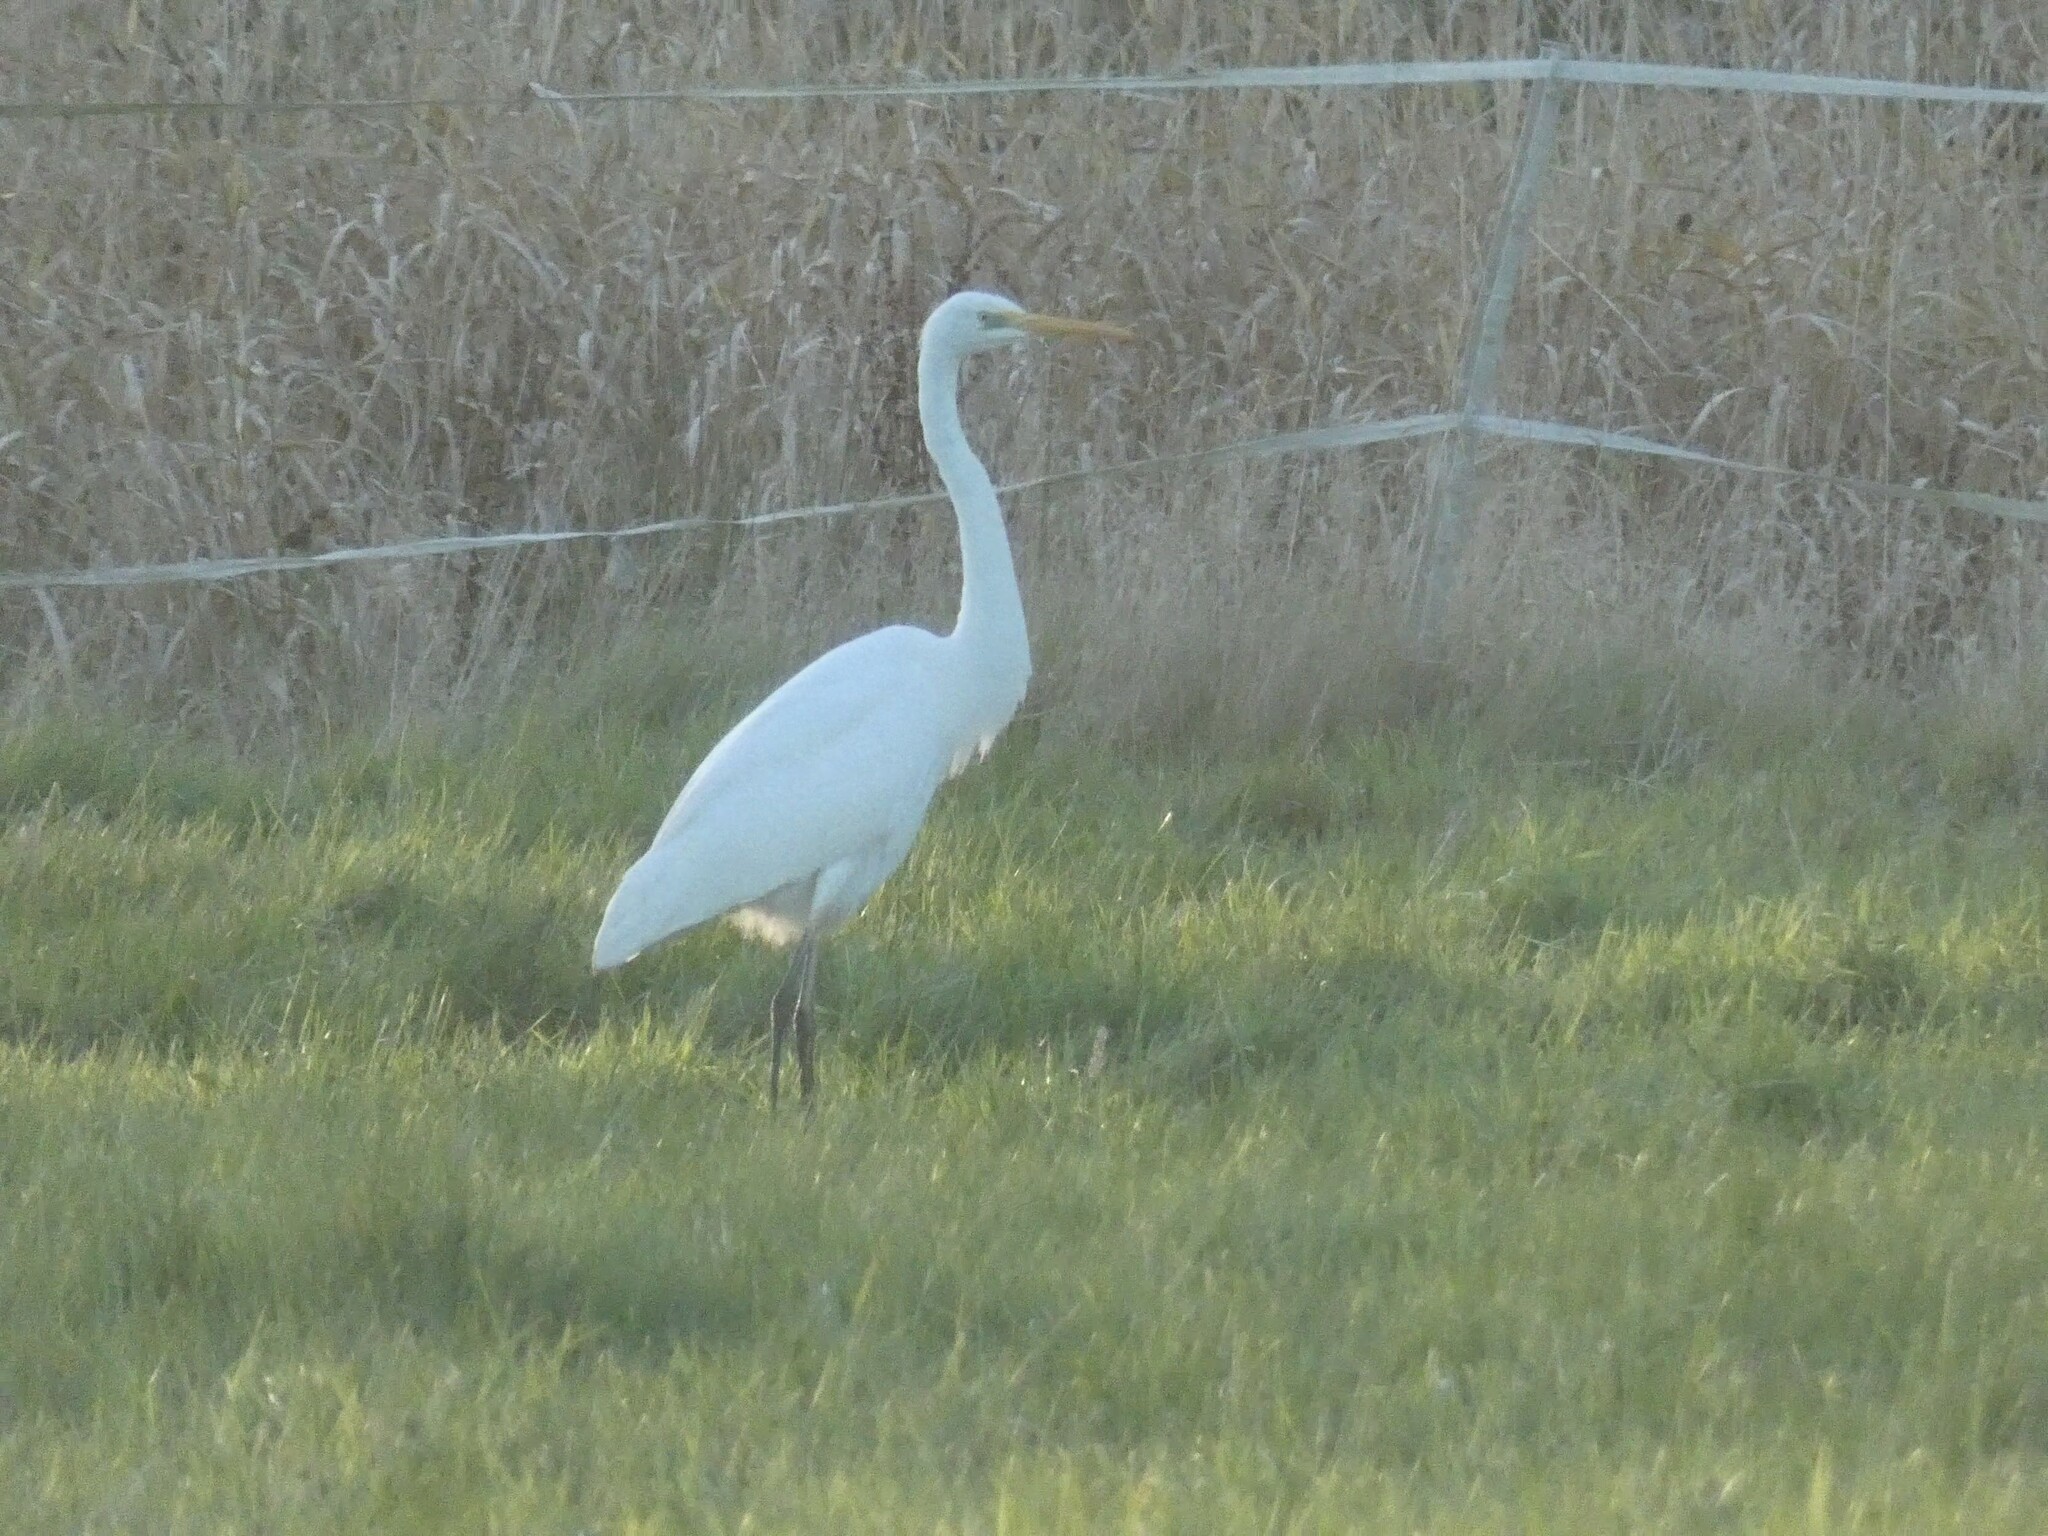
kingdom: Animalia
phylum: Chordata
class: Aves
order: Pelecaniformes
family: Ardeidae
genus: Ardea
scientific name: Ardea alba
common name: Great egret
